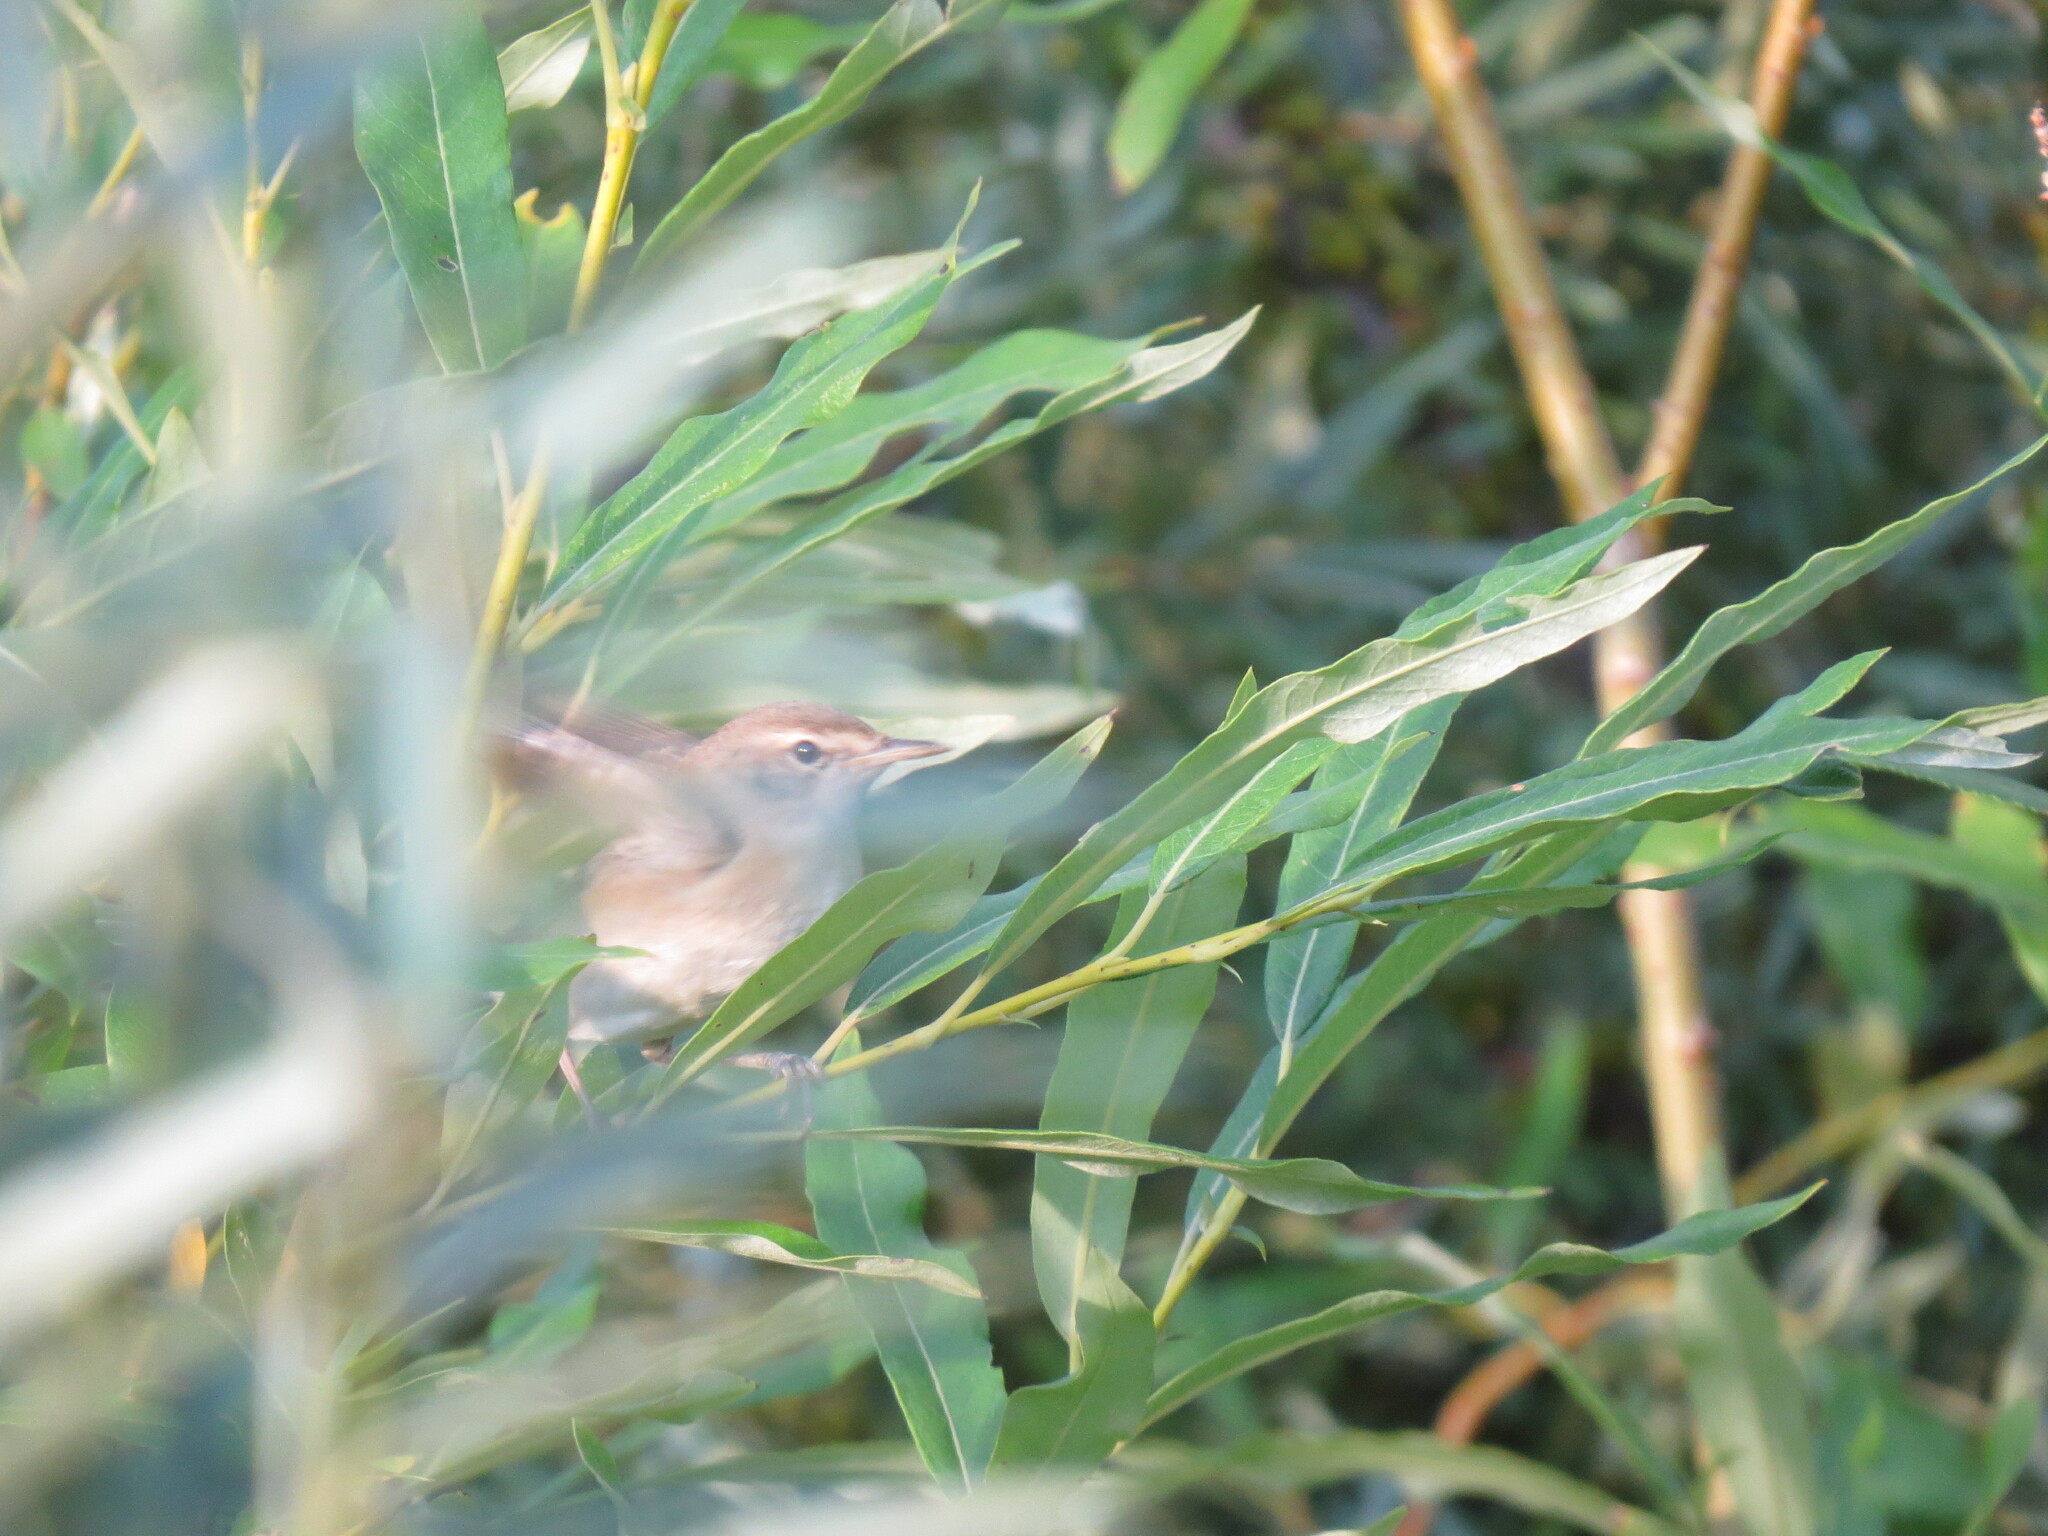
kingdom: Animalia
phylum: Chordata
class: Aves
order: Passeriformes
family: Acrocephalidae
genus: Iduna
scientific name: Iduna caligata
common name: Booted warbler
